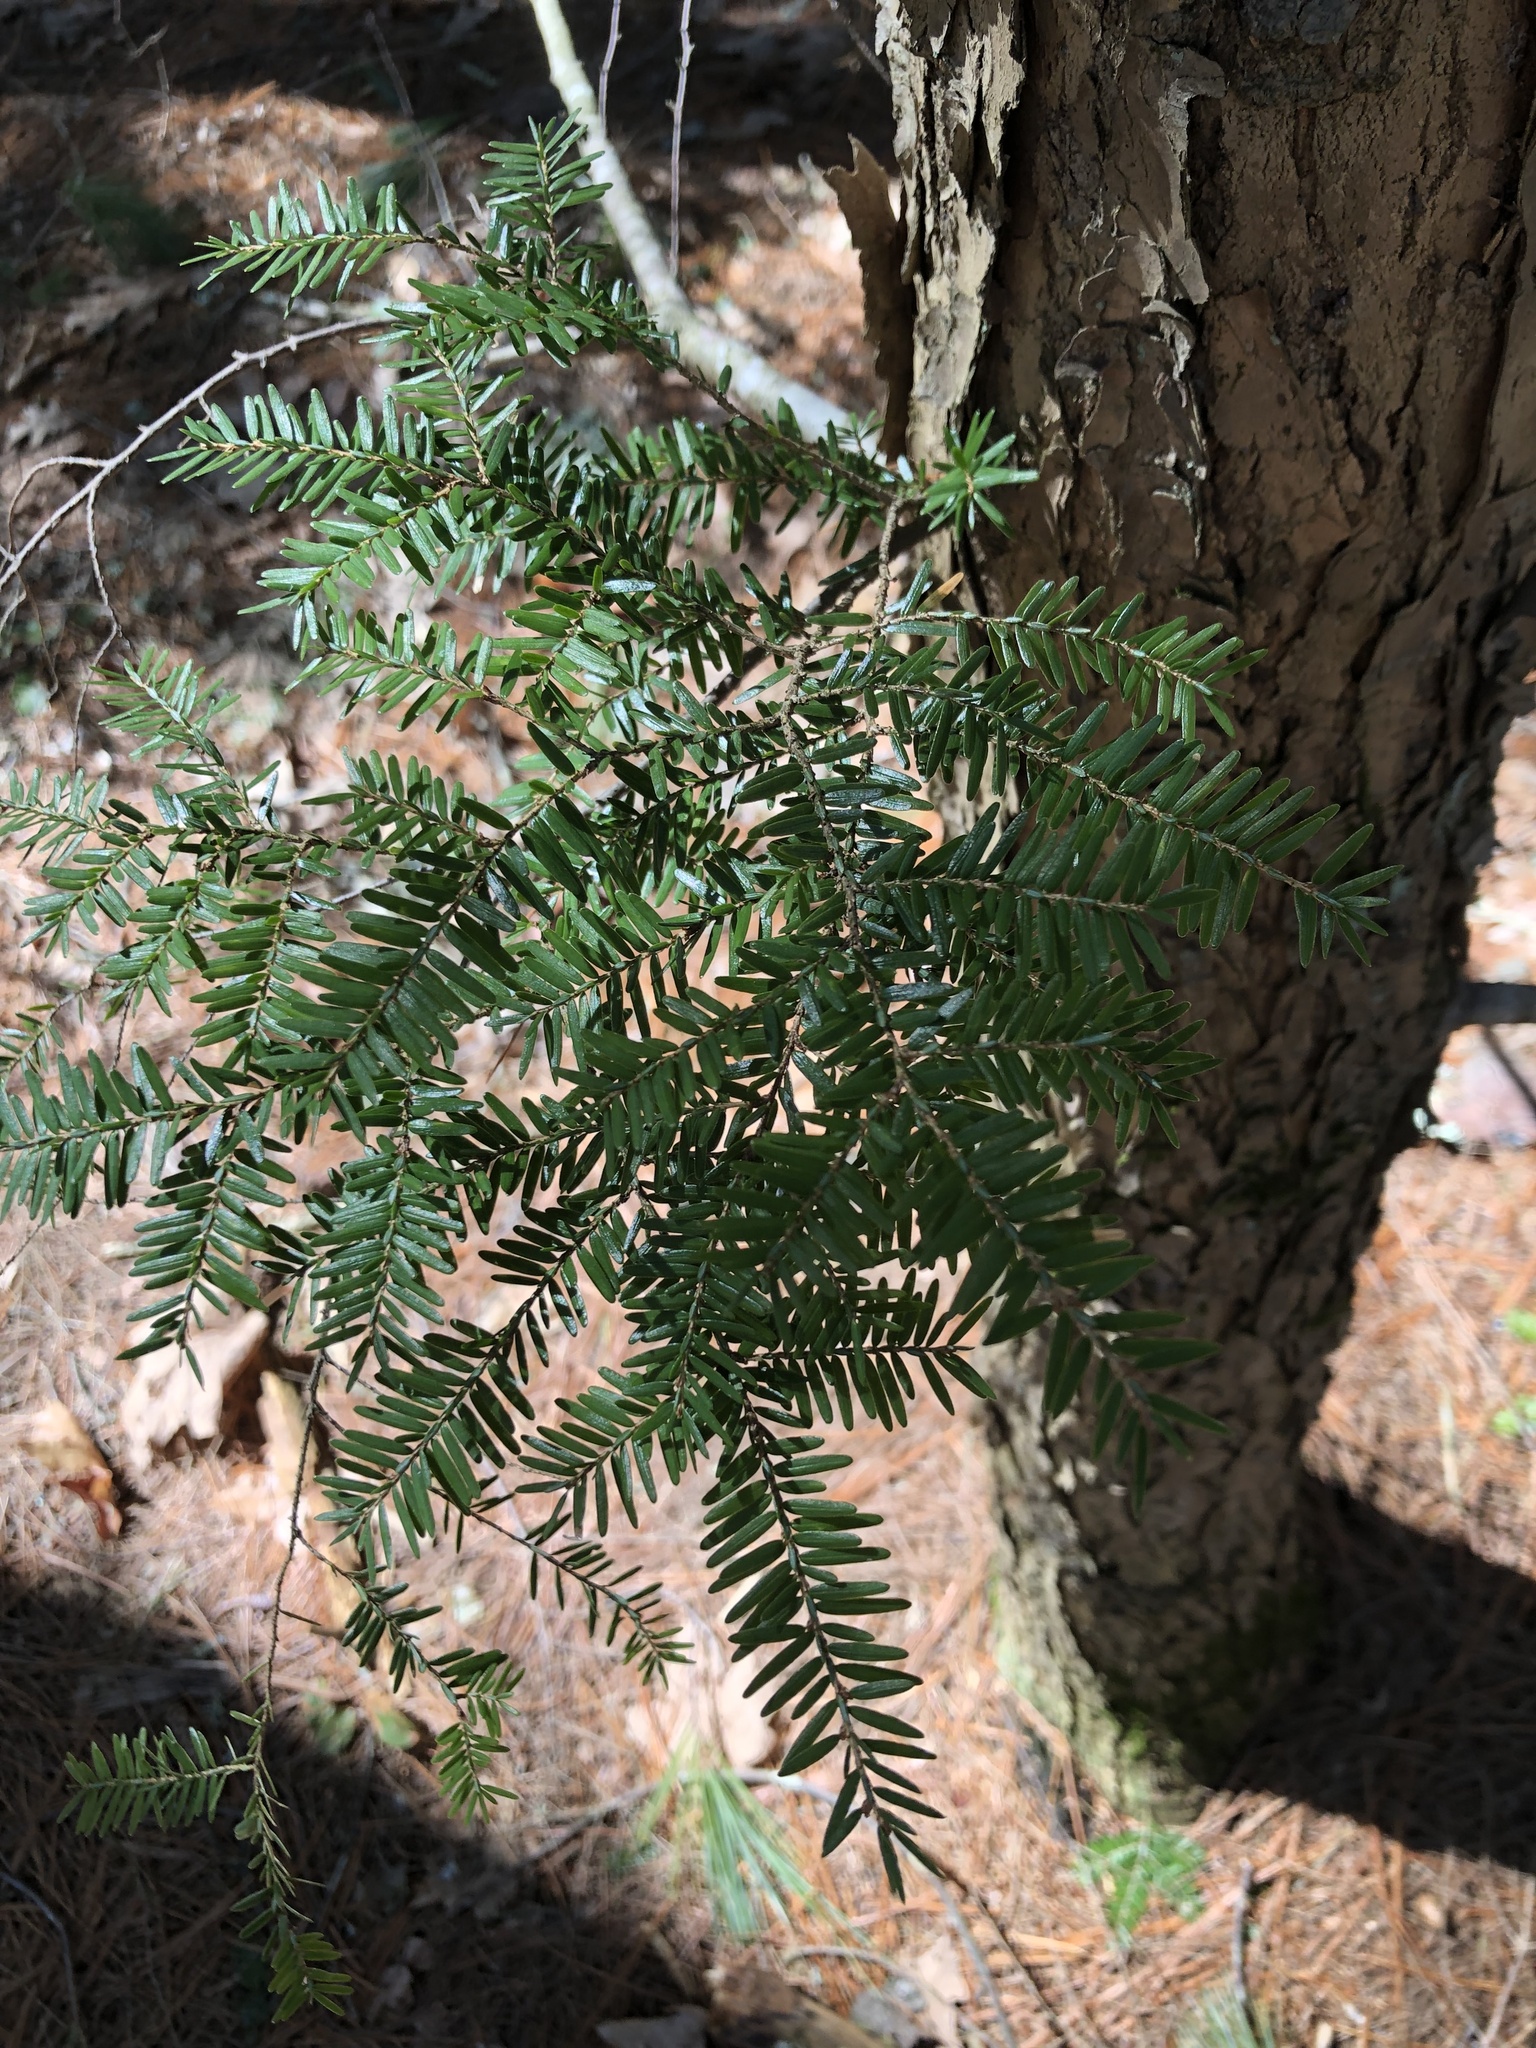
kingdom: Plantae
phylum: Tracheophyta
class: Pinopsida
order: Pinales
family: Pinaceae
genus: Tsuga
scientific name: Tsuga canadensis
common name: Eastern hemlock
